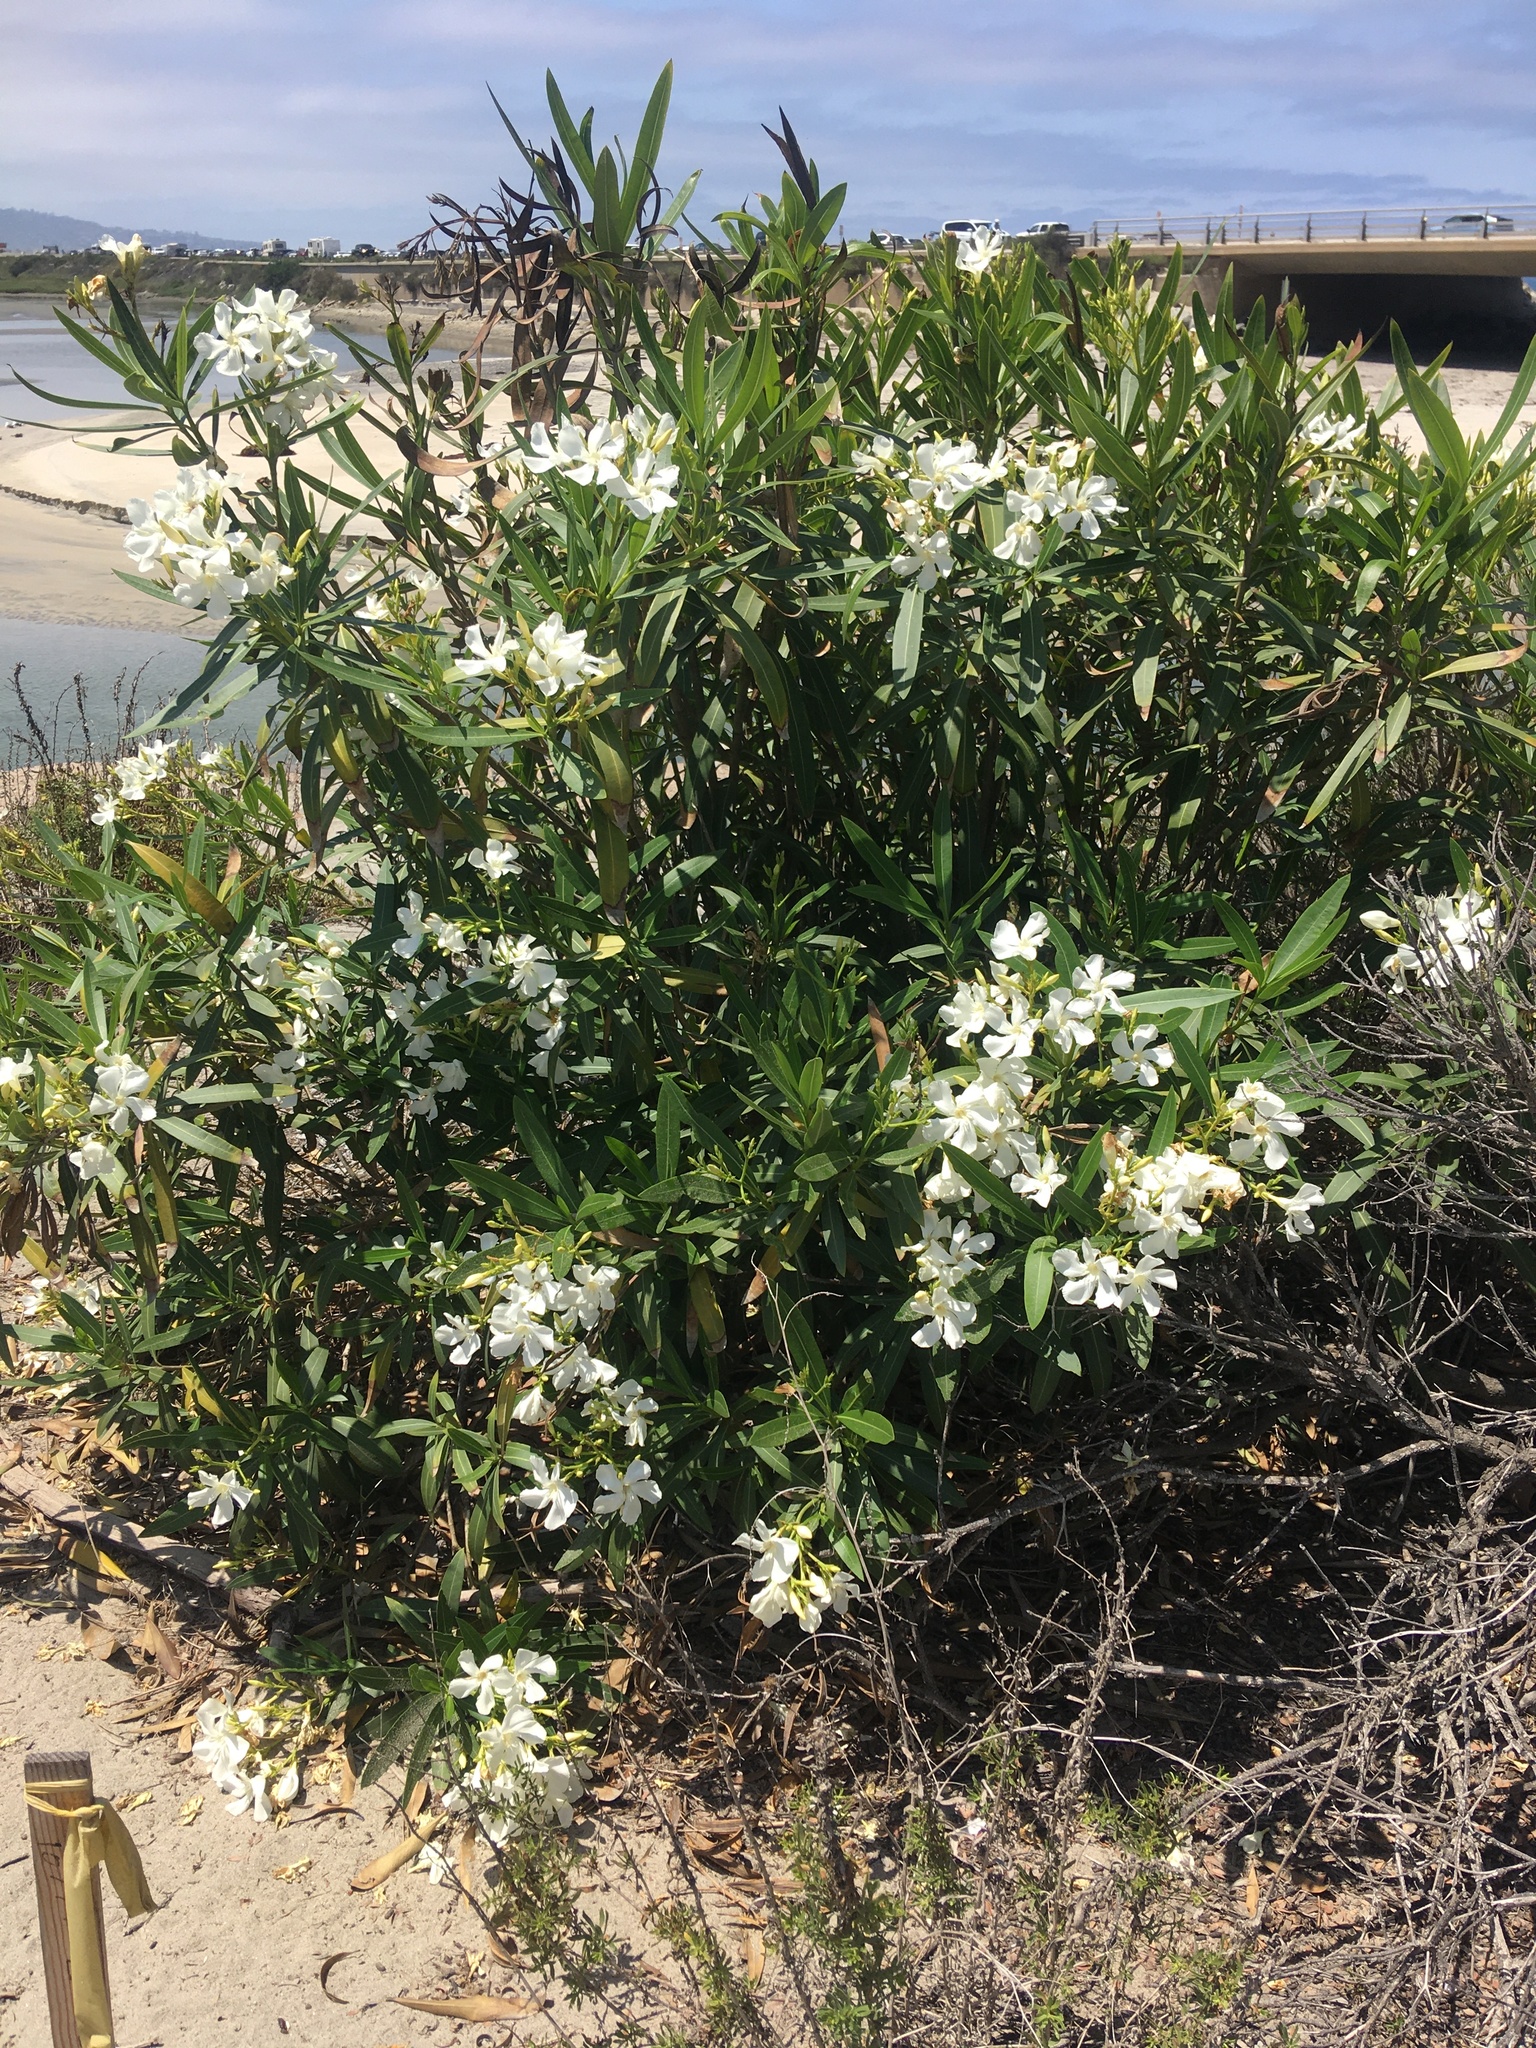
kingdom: Plantae
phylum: Tracheophyta
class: Magnoliopsida
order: Gentianales
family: Apocynaceae
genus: Nerium
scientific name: Nerium oleander
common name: Oleander
